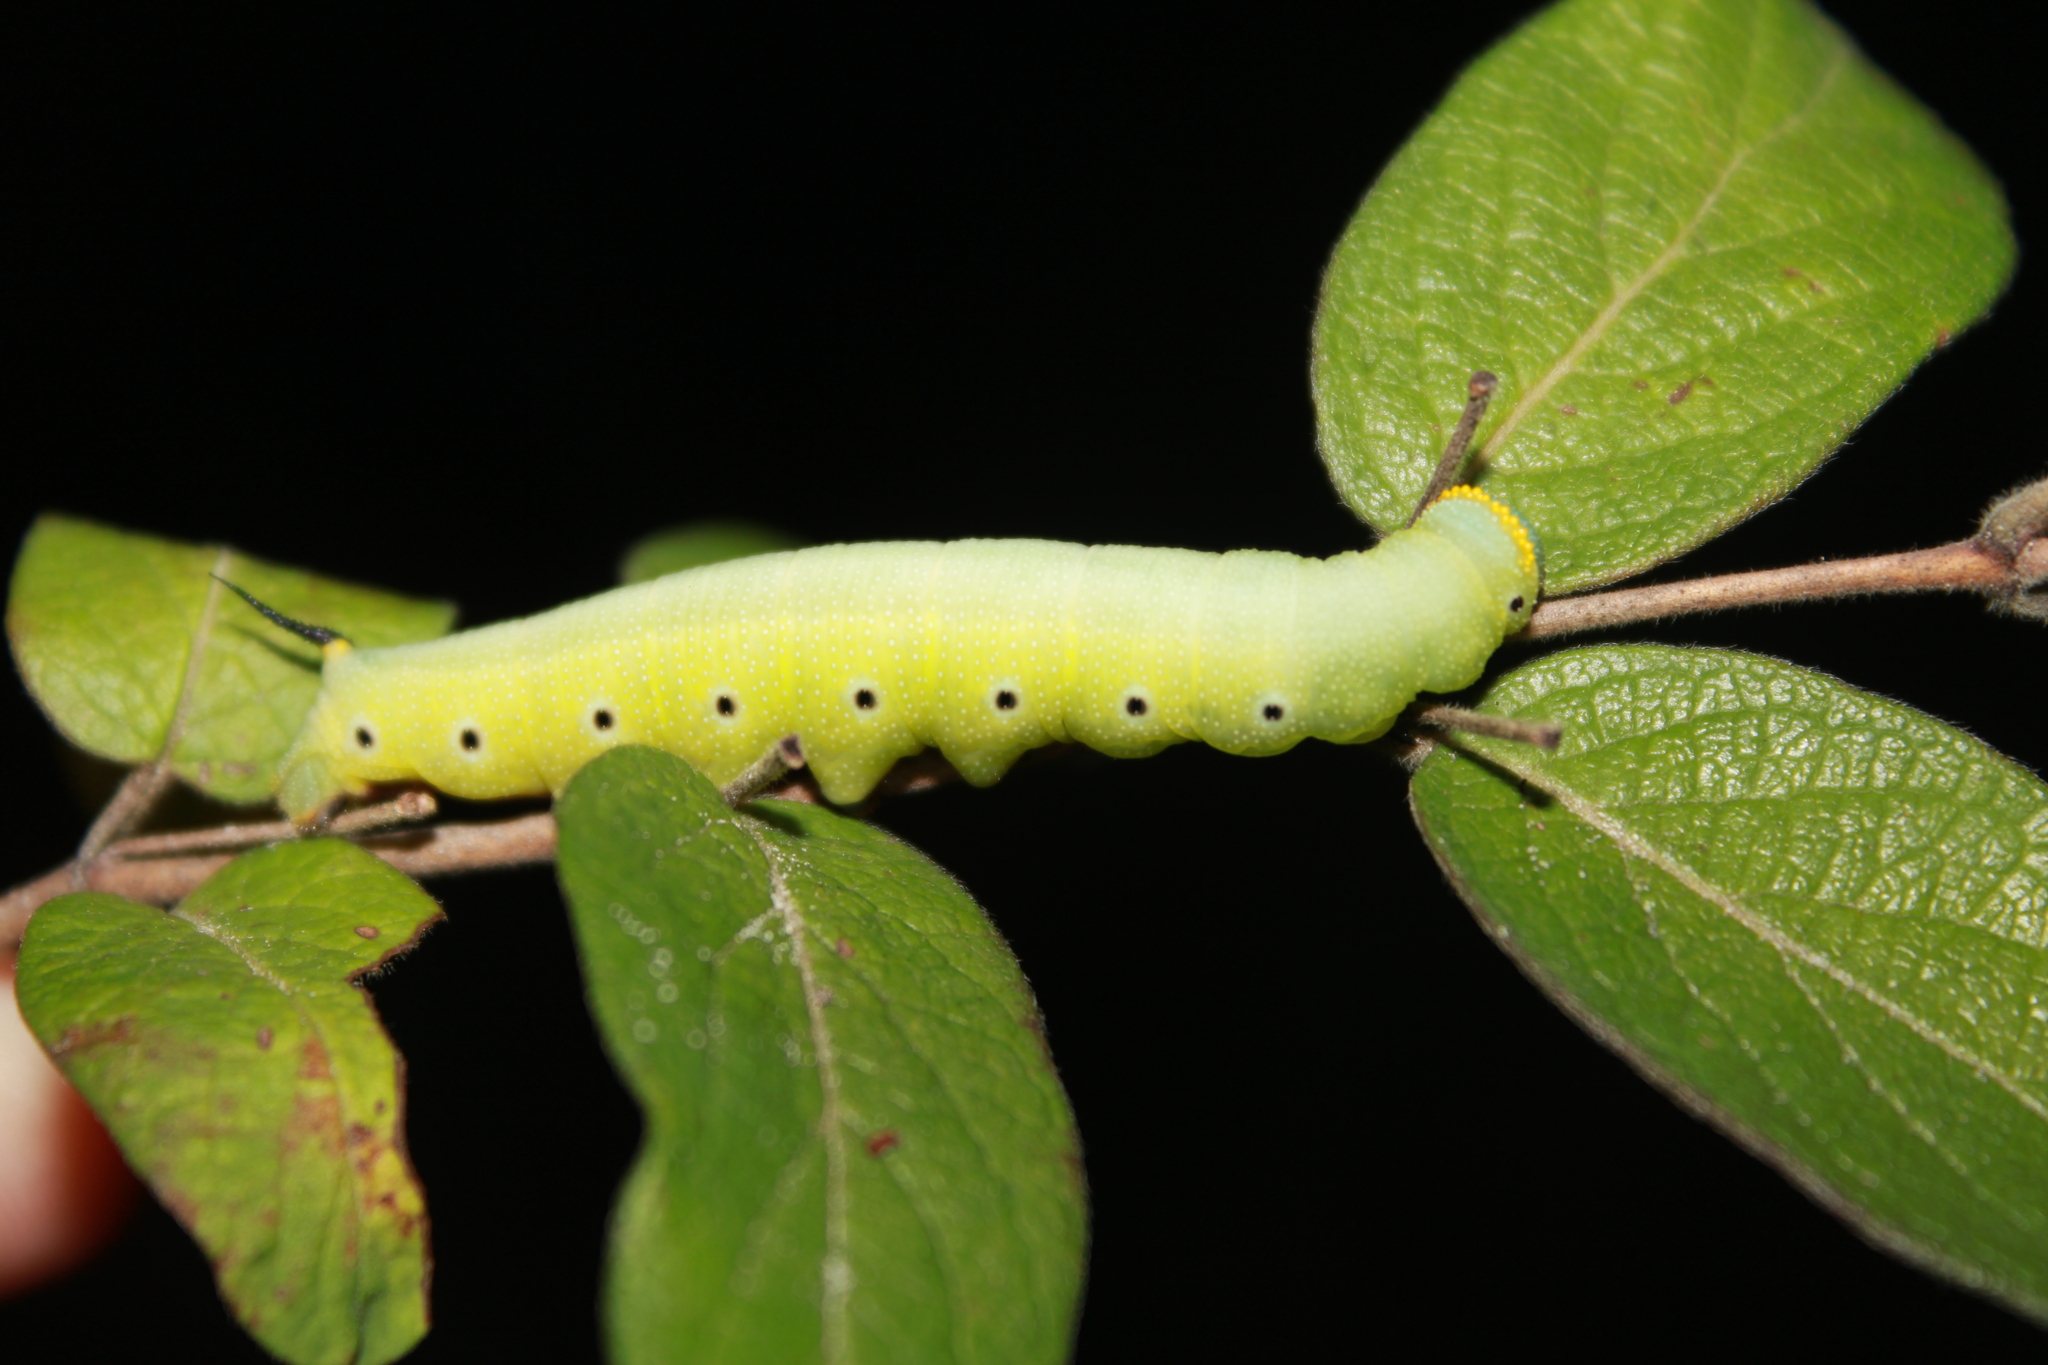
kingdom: Animalia
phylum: Arthropoda
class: Insecta
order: Lepidoptera
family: Sphingidae
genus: Hemaris
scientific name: Hemaris diffinis
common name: Bumblebee moth
